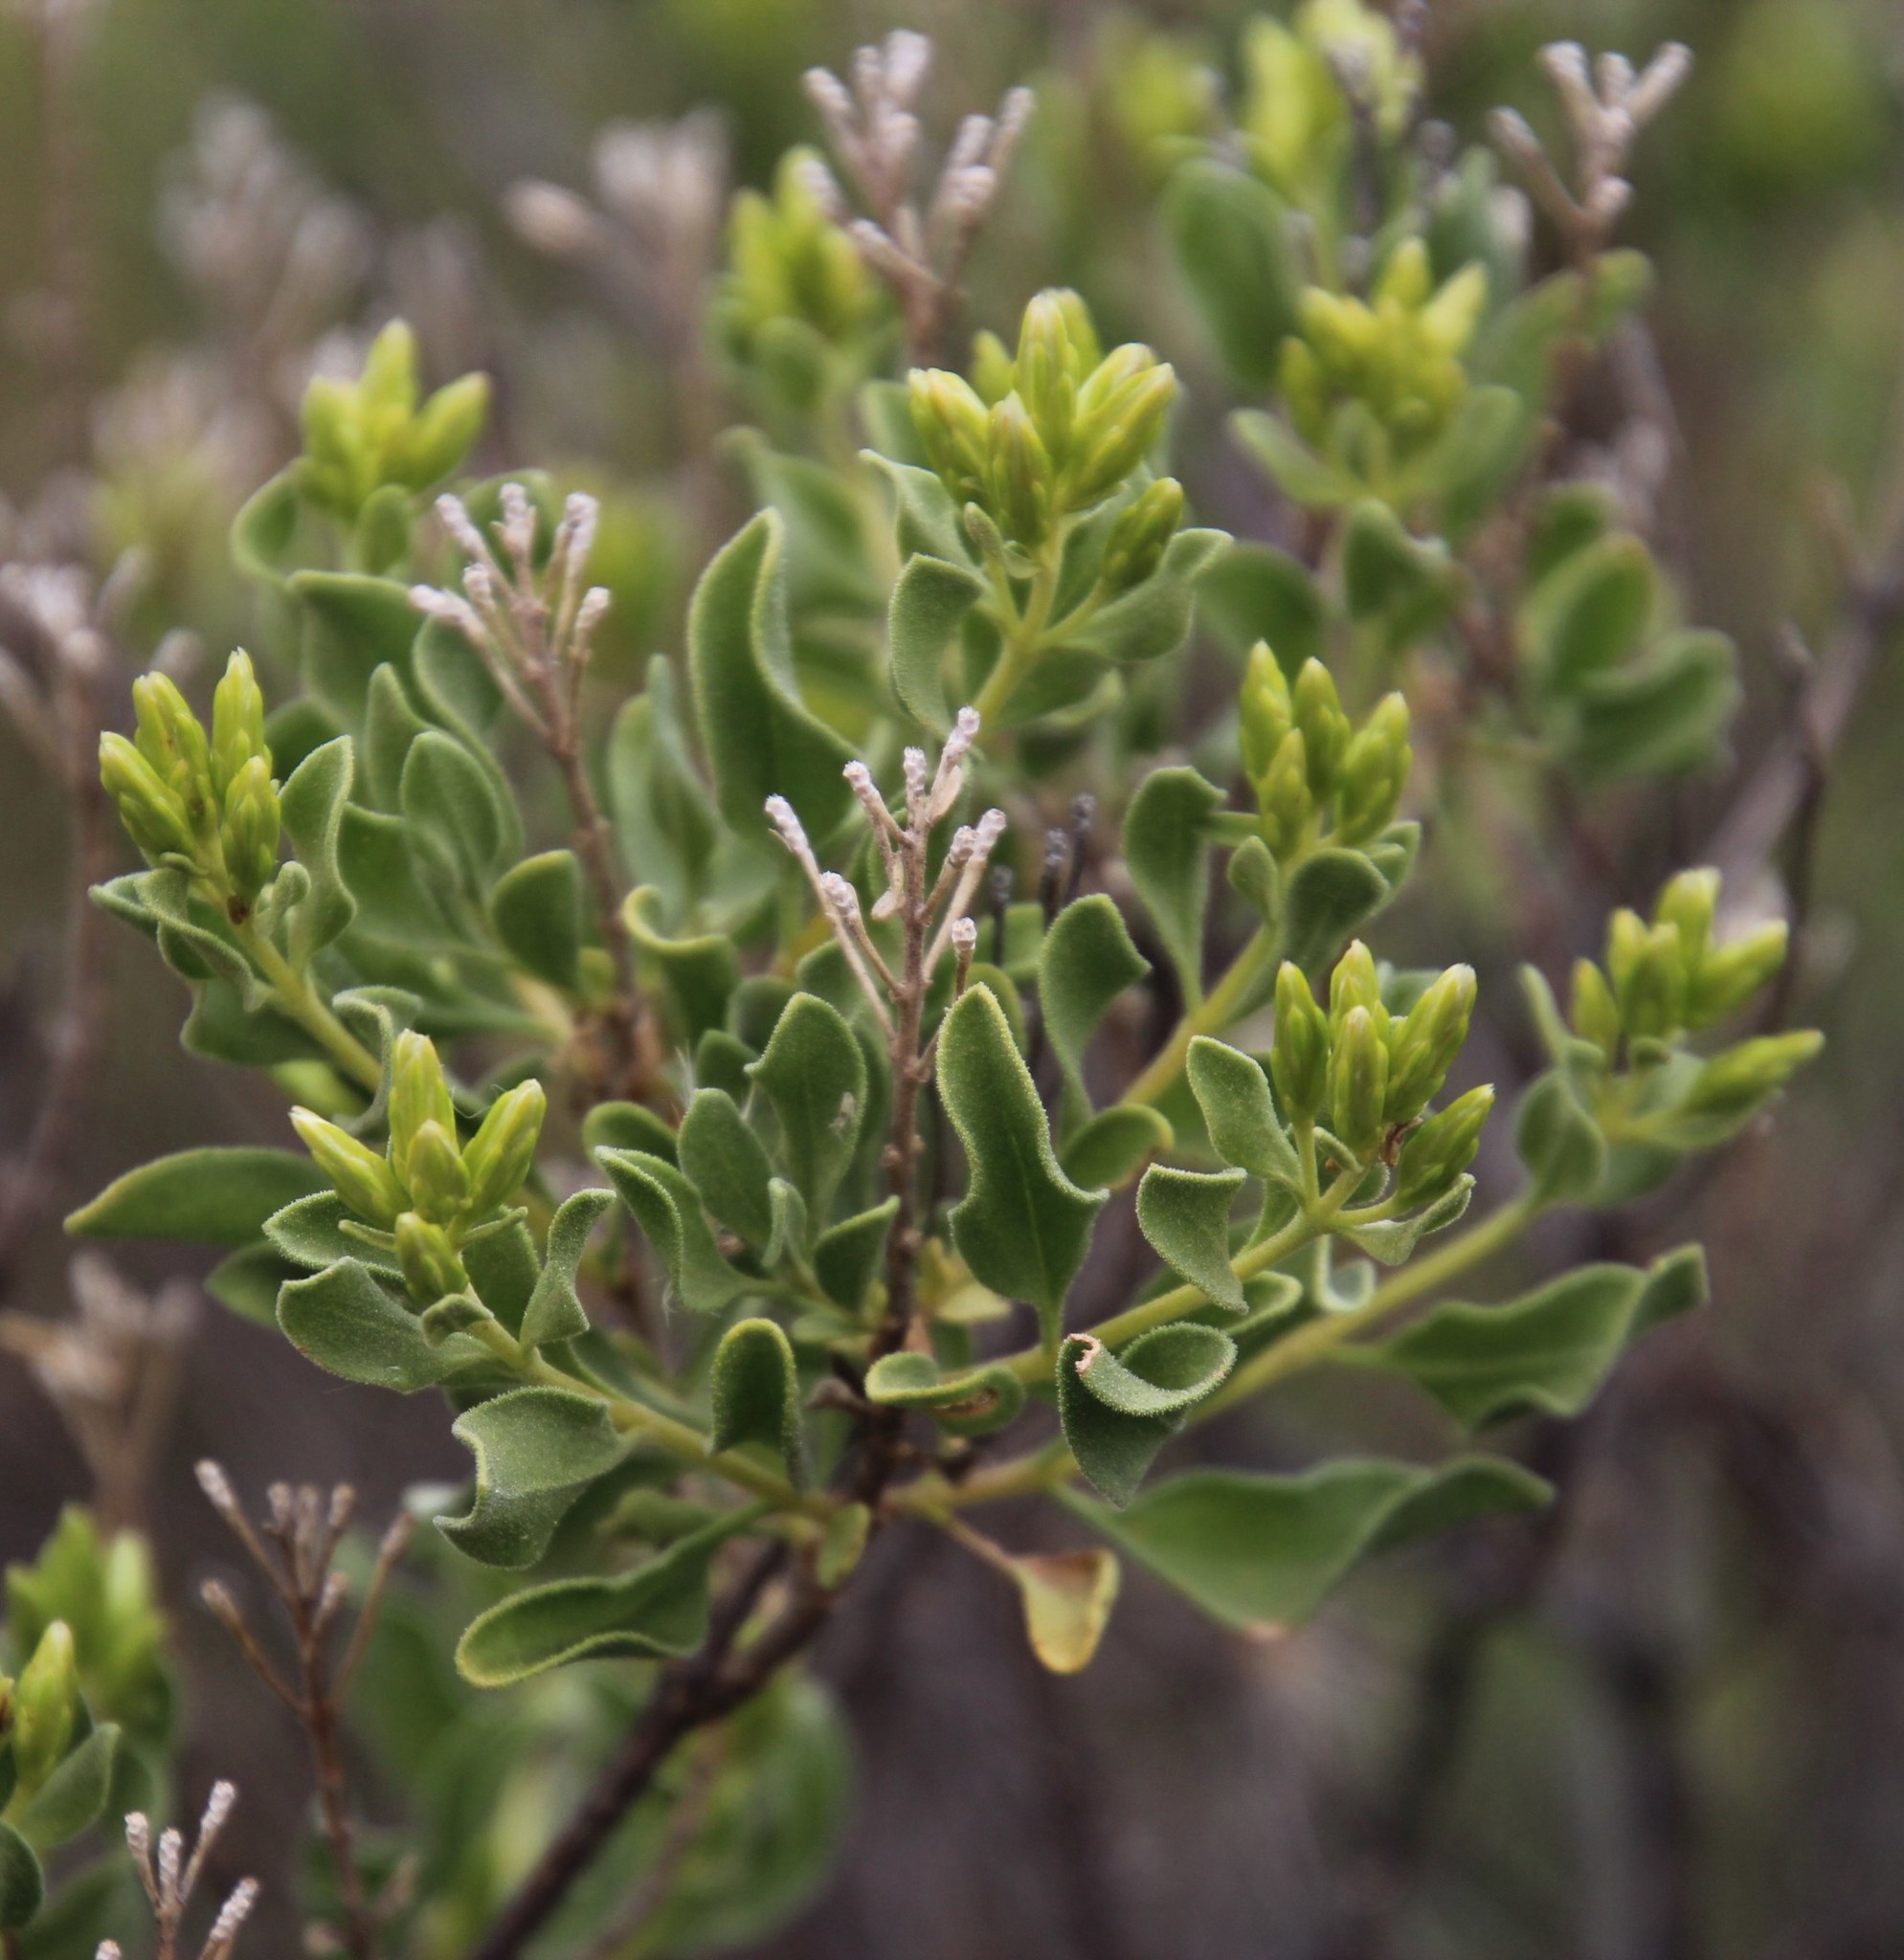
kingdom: Plantae
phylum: Tracheophyta
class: Magnoliopsida
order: Asterales
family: Asteraceae
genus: Pteronia
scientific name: Pteronia divaricata
